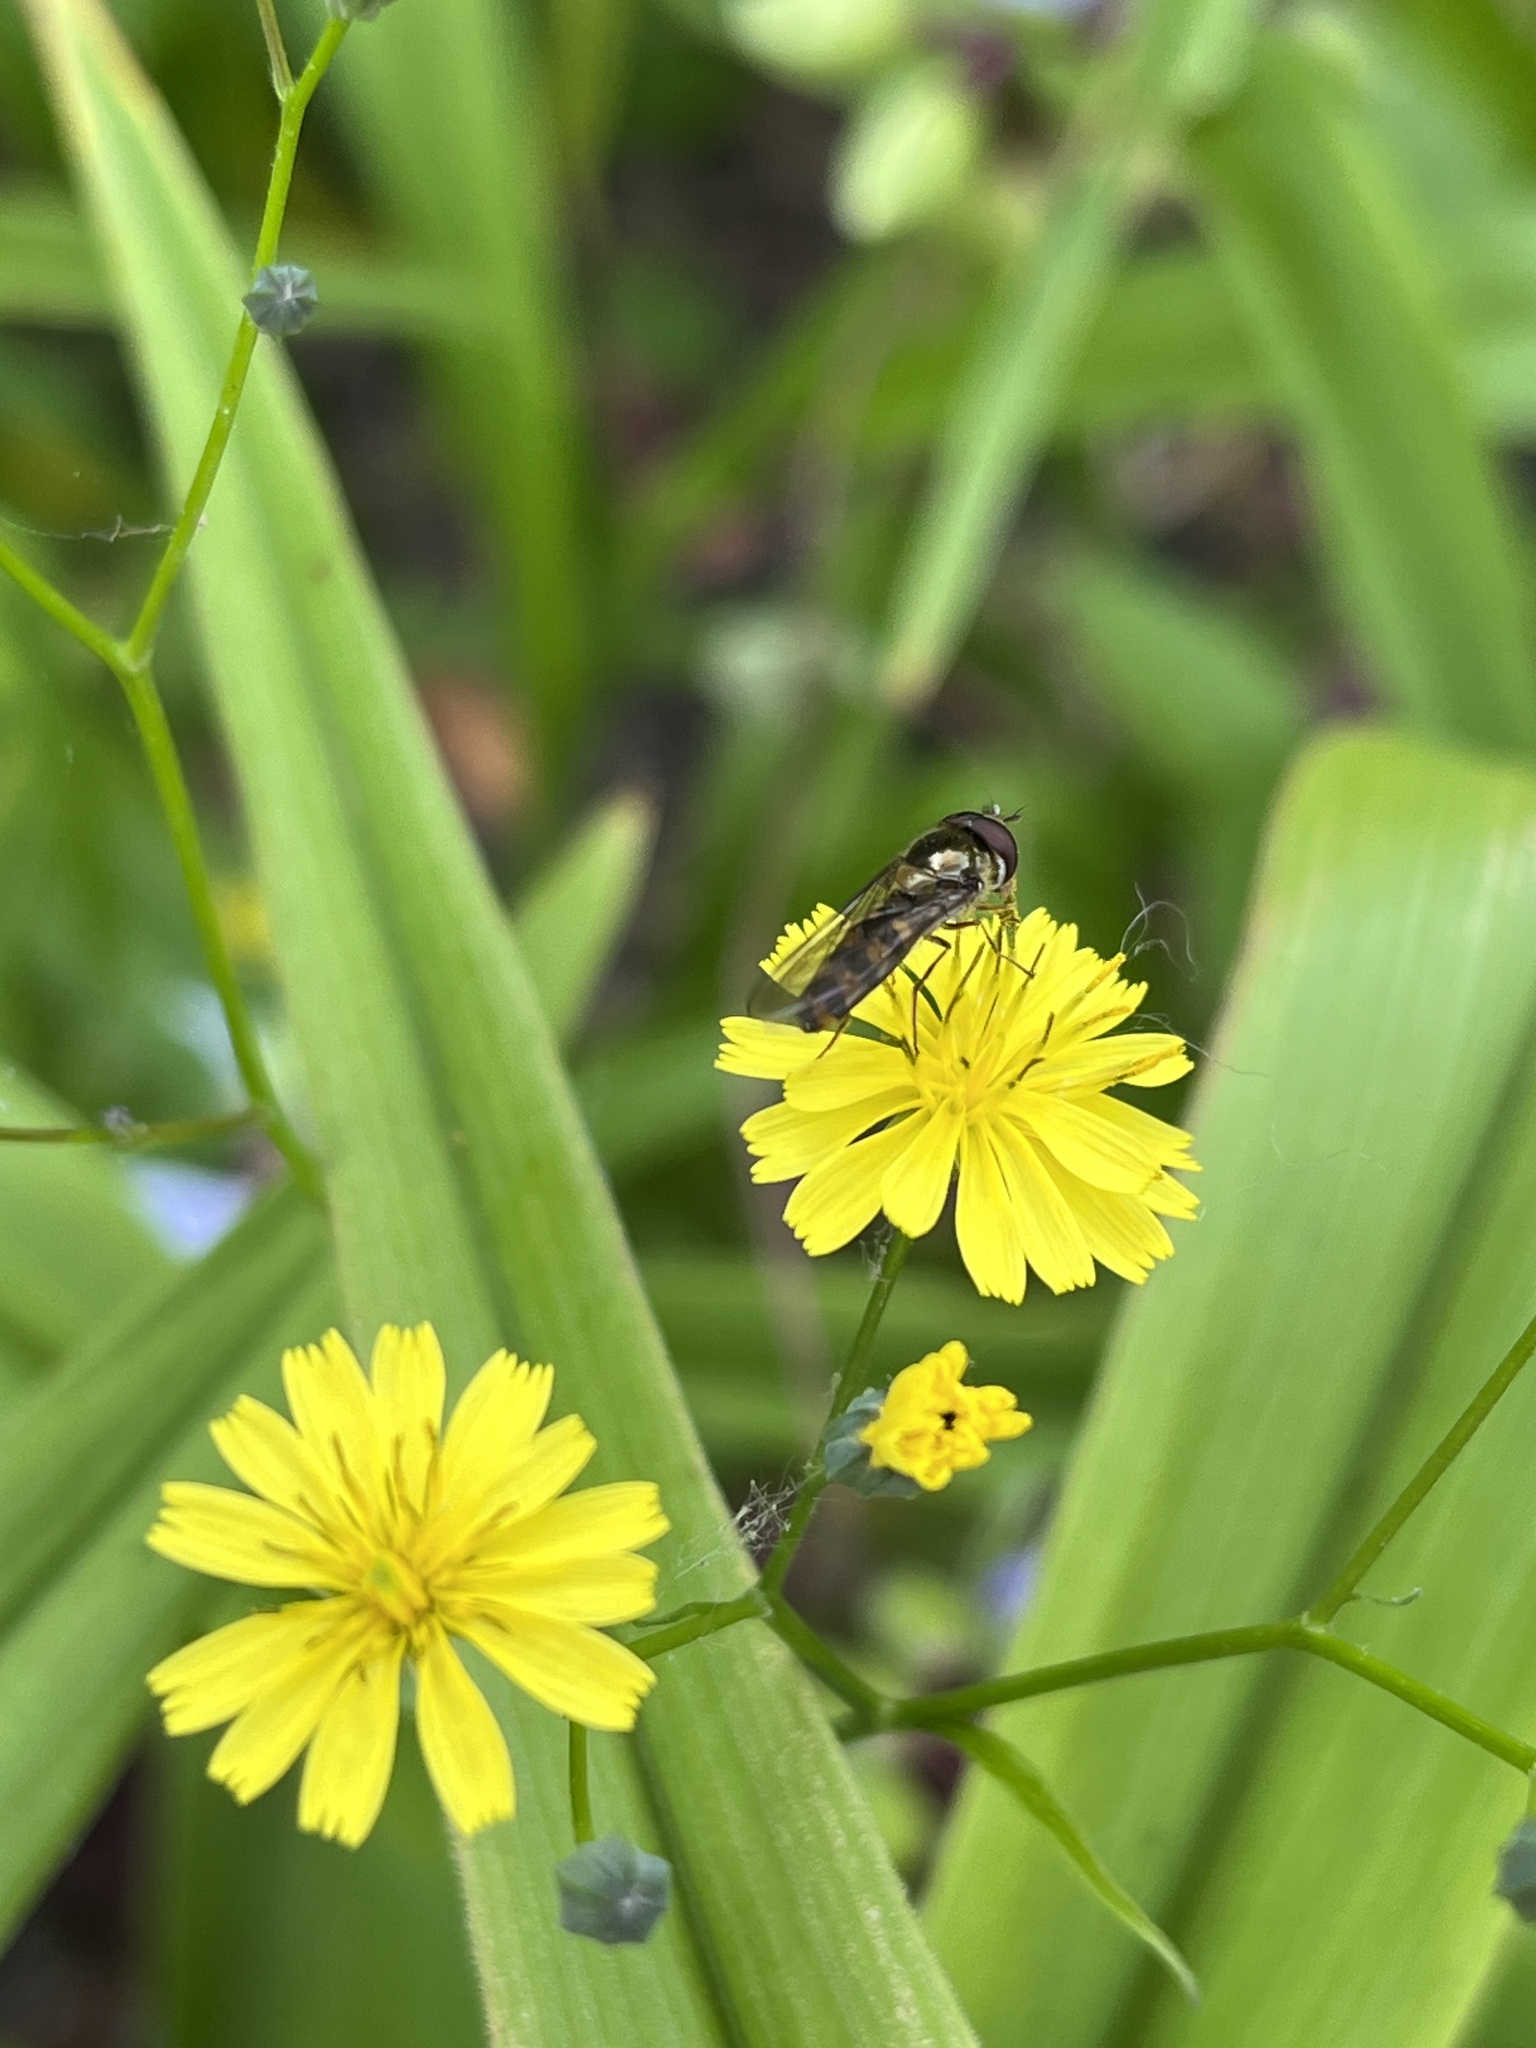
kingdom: Animalia
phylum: Arthropoda
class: Insecta
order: Diptera
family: Syrphidae
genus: Meliscaeva
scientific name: Meliscaeva auricollis
